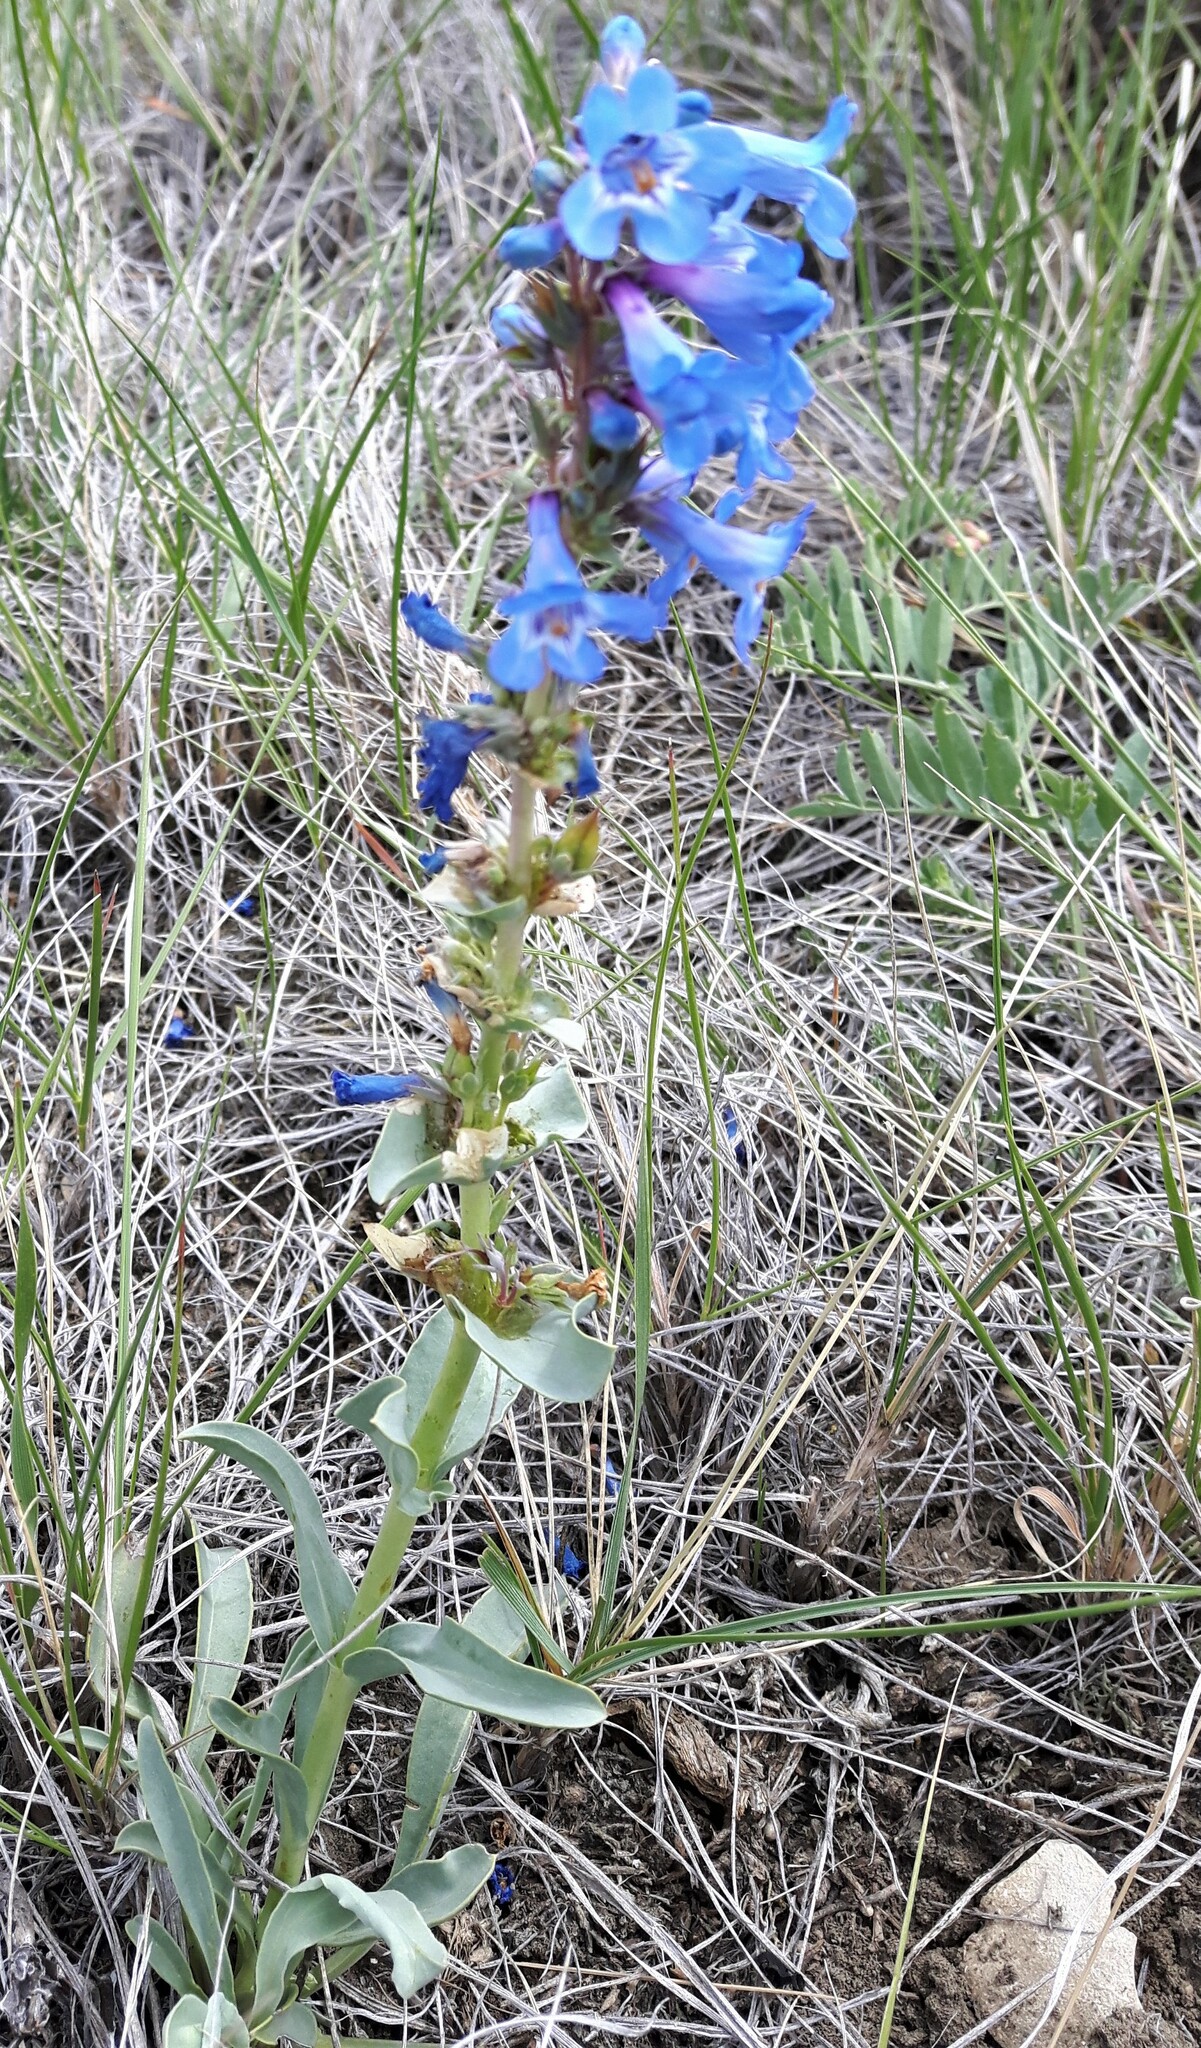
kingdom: Plantae
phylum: Tracheophyta
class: Magnoliopsida
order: Lamiales
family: Plantaginaceae
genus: Penstemon
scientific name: Penstemon nitidus
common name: Shining penstemon
